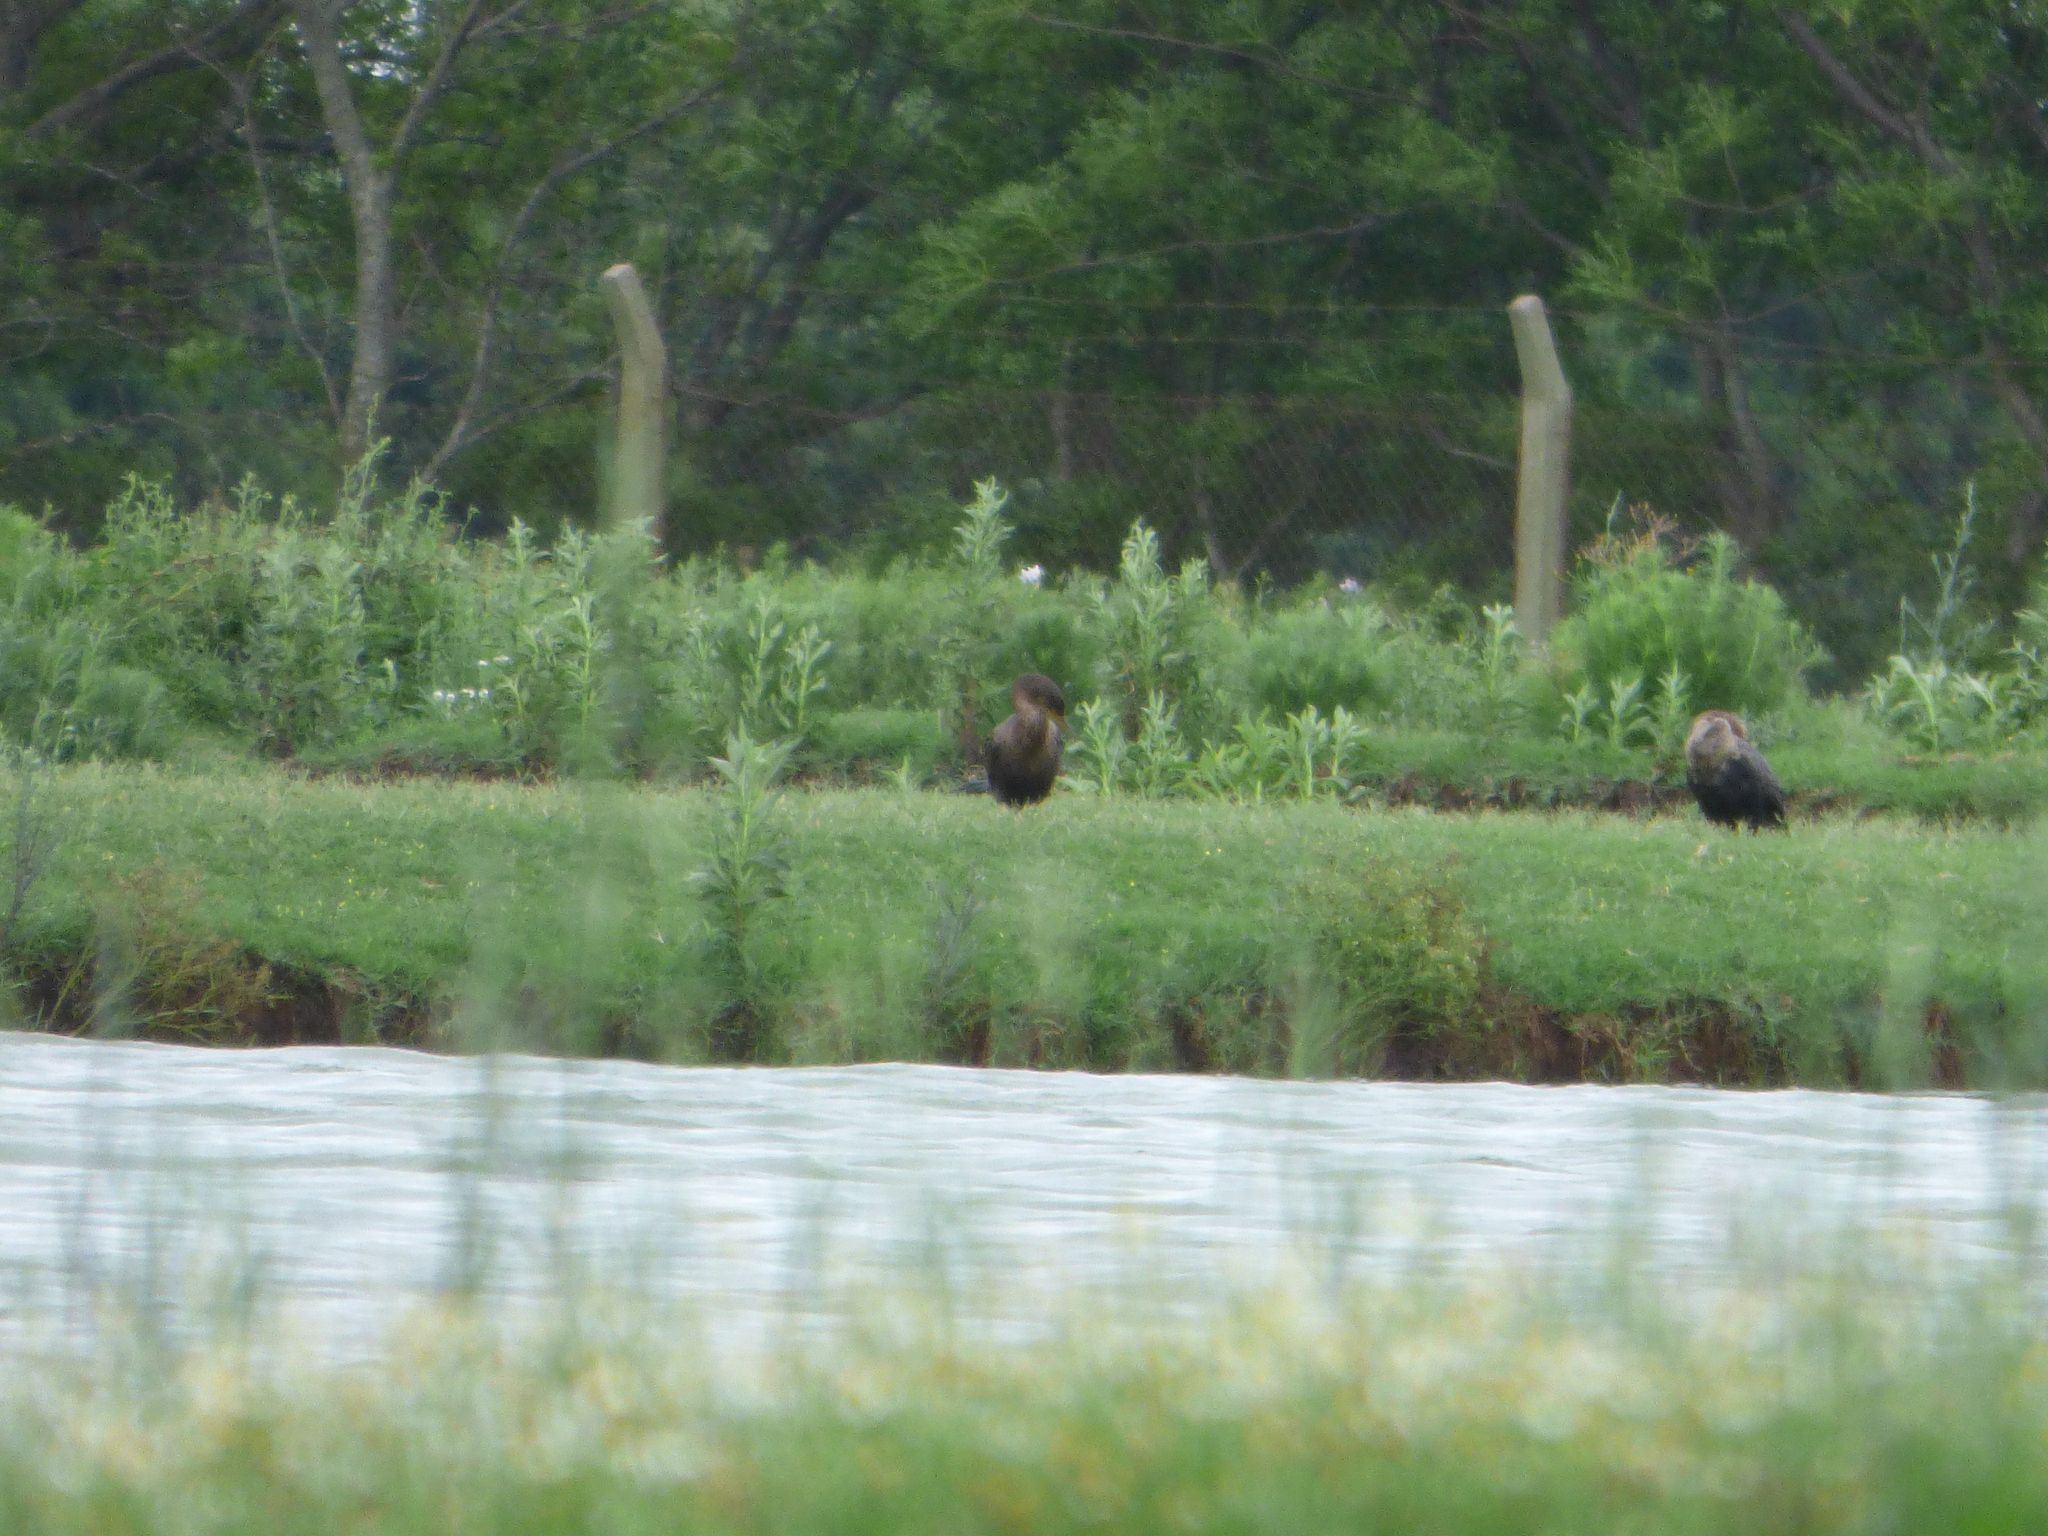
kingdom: Animalia
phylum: Chordata
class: Aves
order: Suliformes
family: Phalacrocoracidae
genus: Phalacrocorax
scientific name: Phalacrocorax brasilianus
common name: Neotropic cormorant
